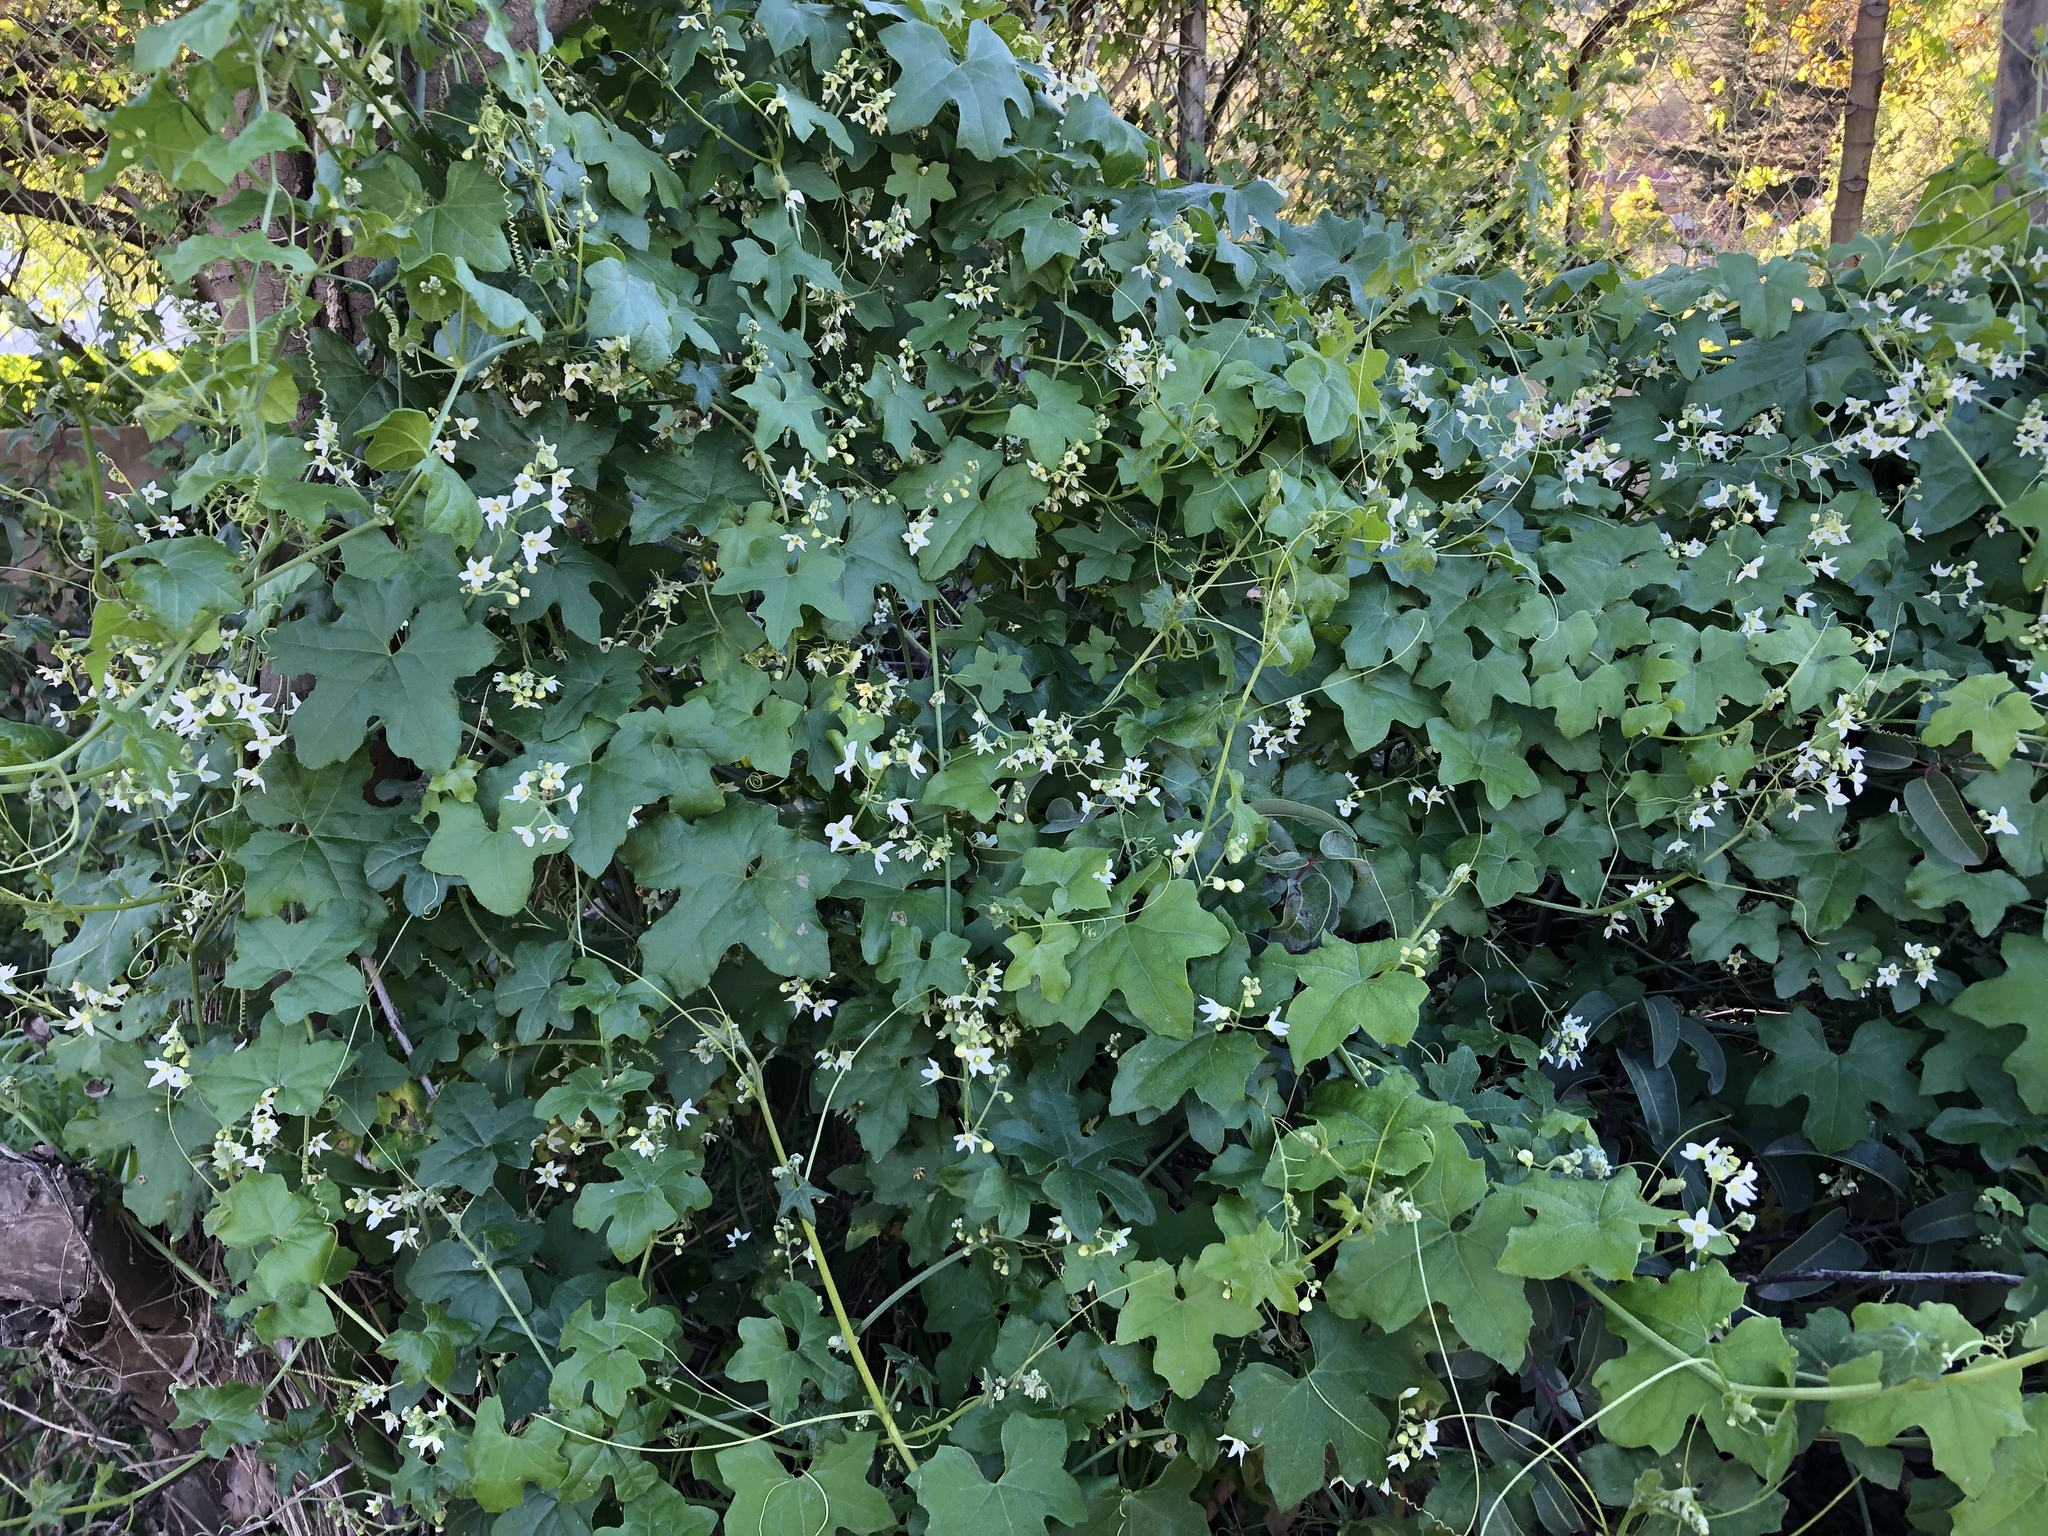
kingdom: Plantae
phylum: Tracheophyta
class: Magnoliopsida
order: Cucurbitales
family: Cucurbitaceae
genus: Marah
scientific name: Marah macrocarpa
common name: Cucamonga manroot
